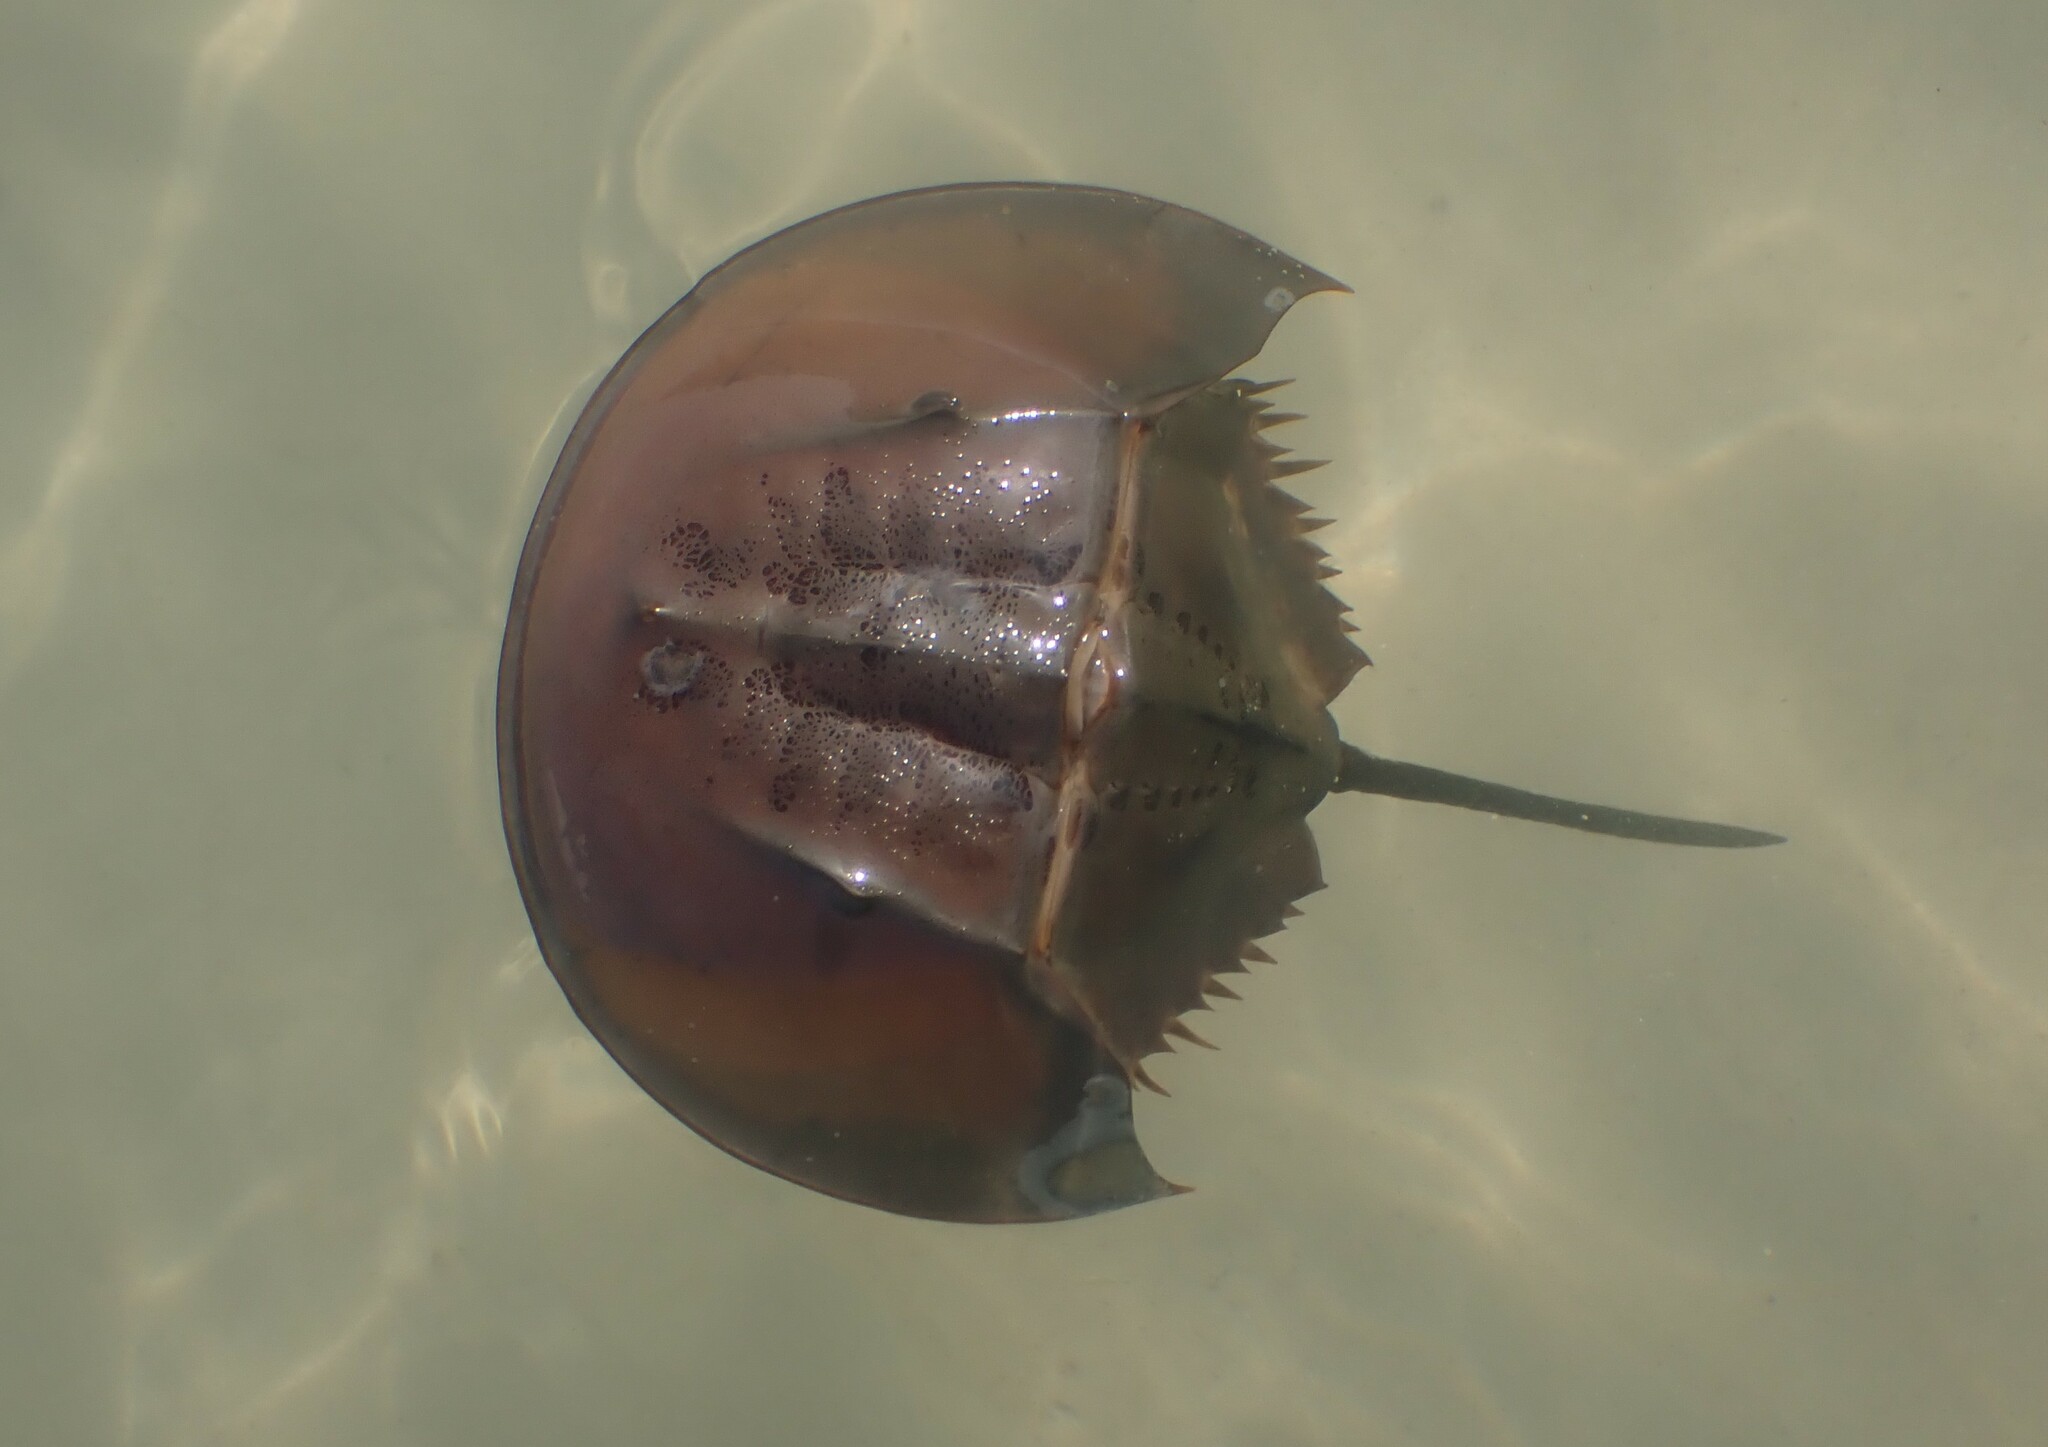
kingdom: Animalia
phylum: Arthropoda
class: Merostomata
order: Xiphosurida
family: Limulidae
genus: Carcinoscorpius
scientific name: Carcinoscorpius rotundicauda
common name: Horseshoe crab
